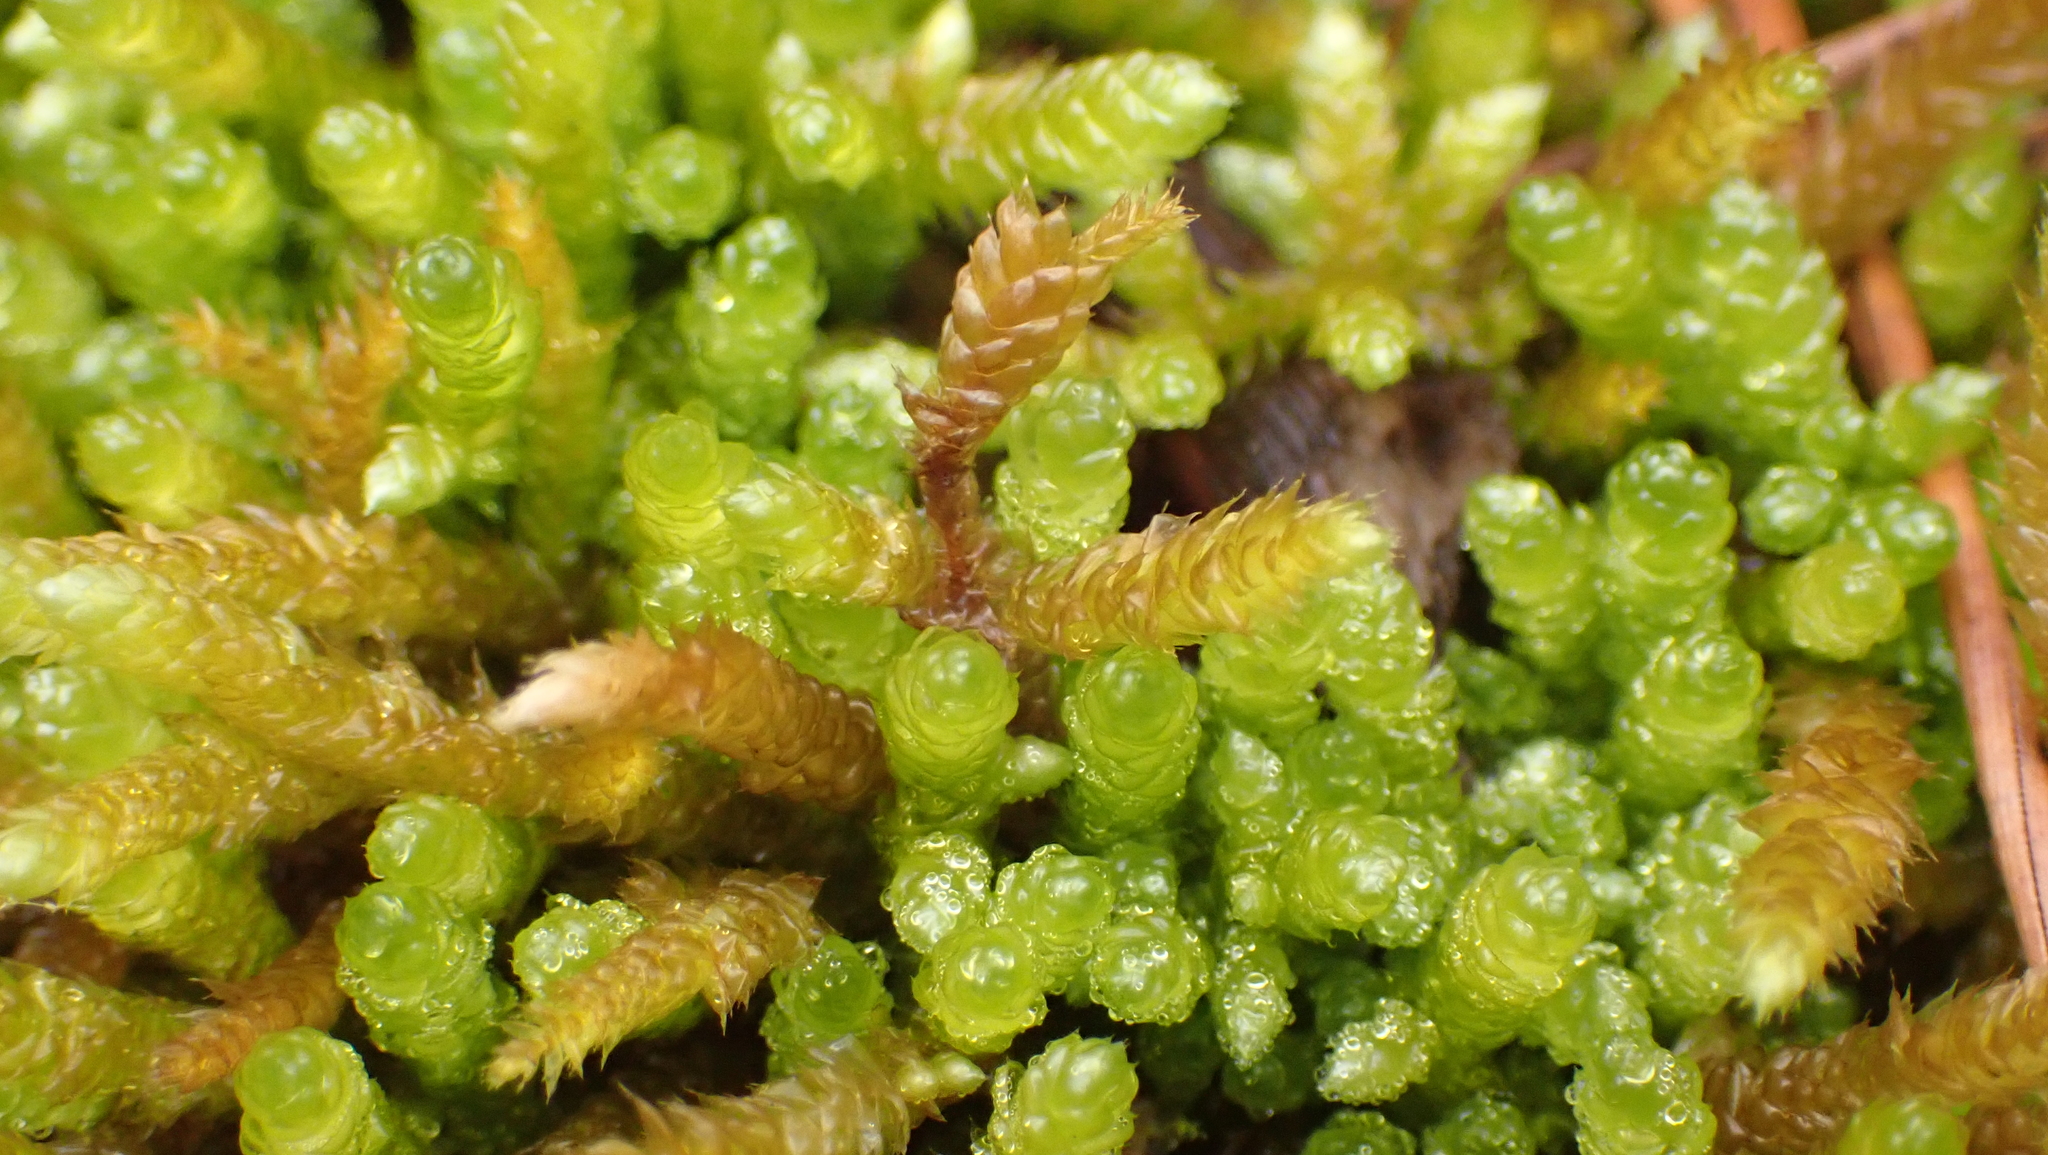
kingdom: Plantae
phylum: Bryophyta
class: Bryopsida
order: Hypnales
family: Brachytheciaceae
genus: Bryoandersonia
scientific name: Bryoandersonia illecebra
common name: Spoon-leaved moss
